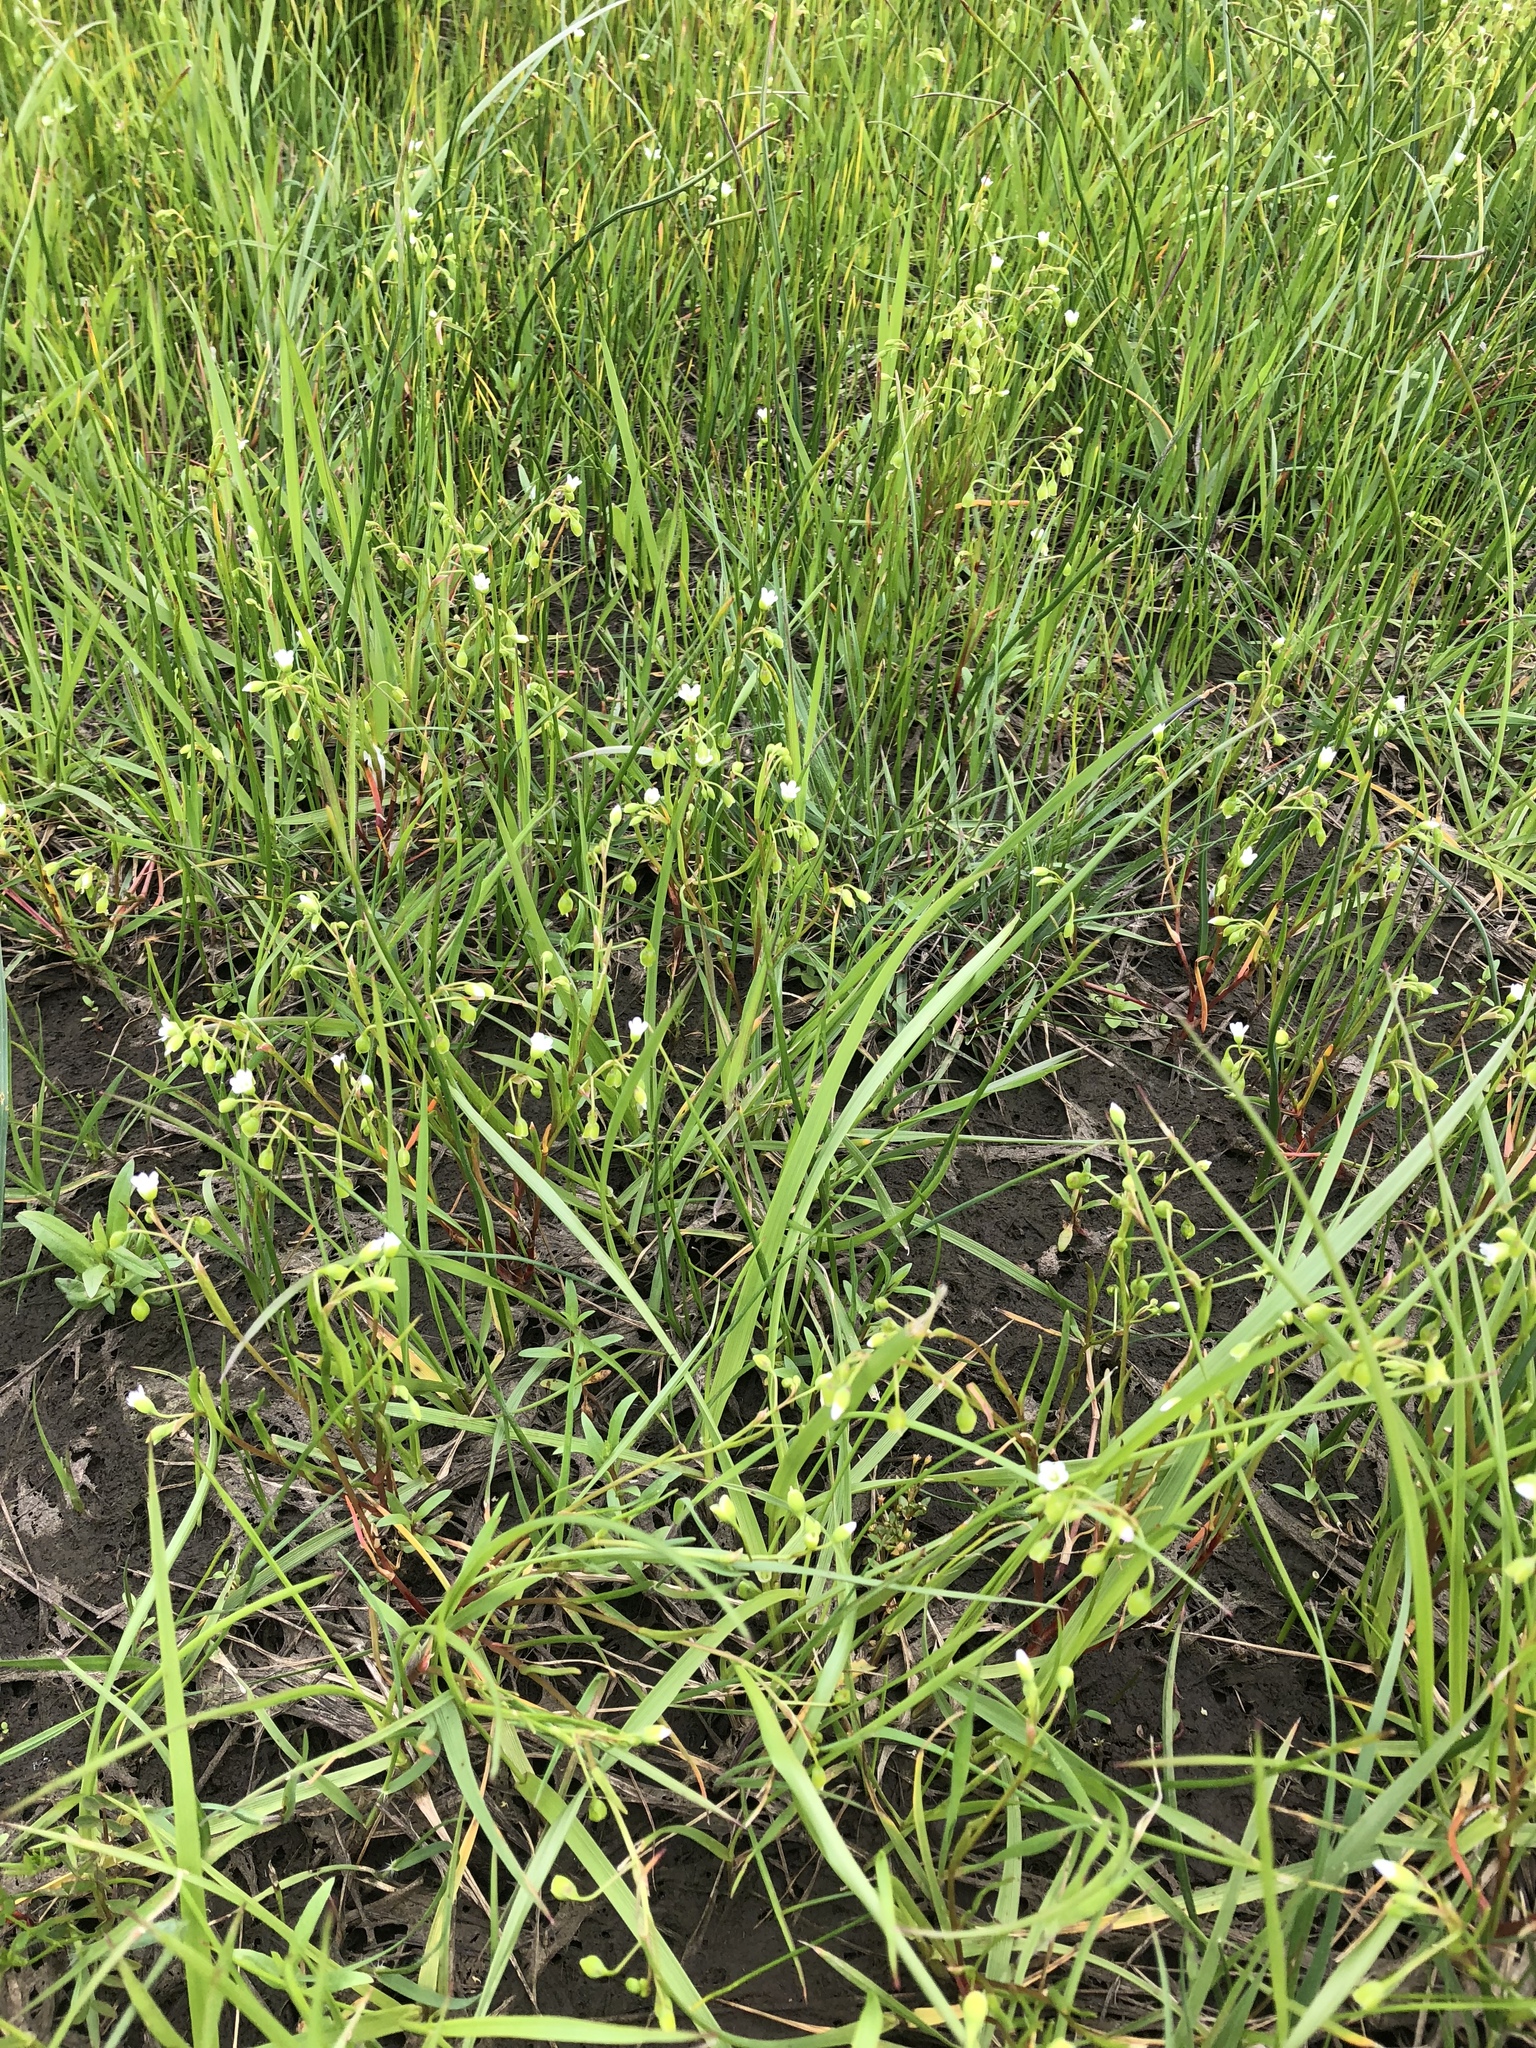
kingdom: Plantae
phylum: Tracheophyta
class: Magnoliopsida
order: Caryophyllales
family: Montiaceae
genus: Montia
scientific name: Montia linearis
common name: Narrow-leaf montia
